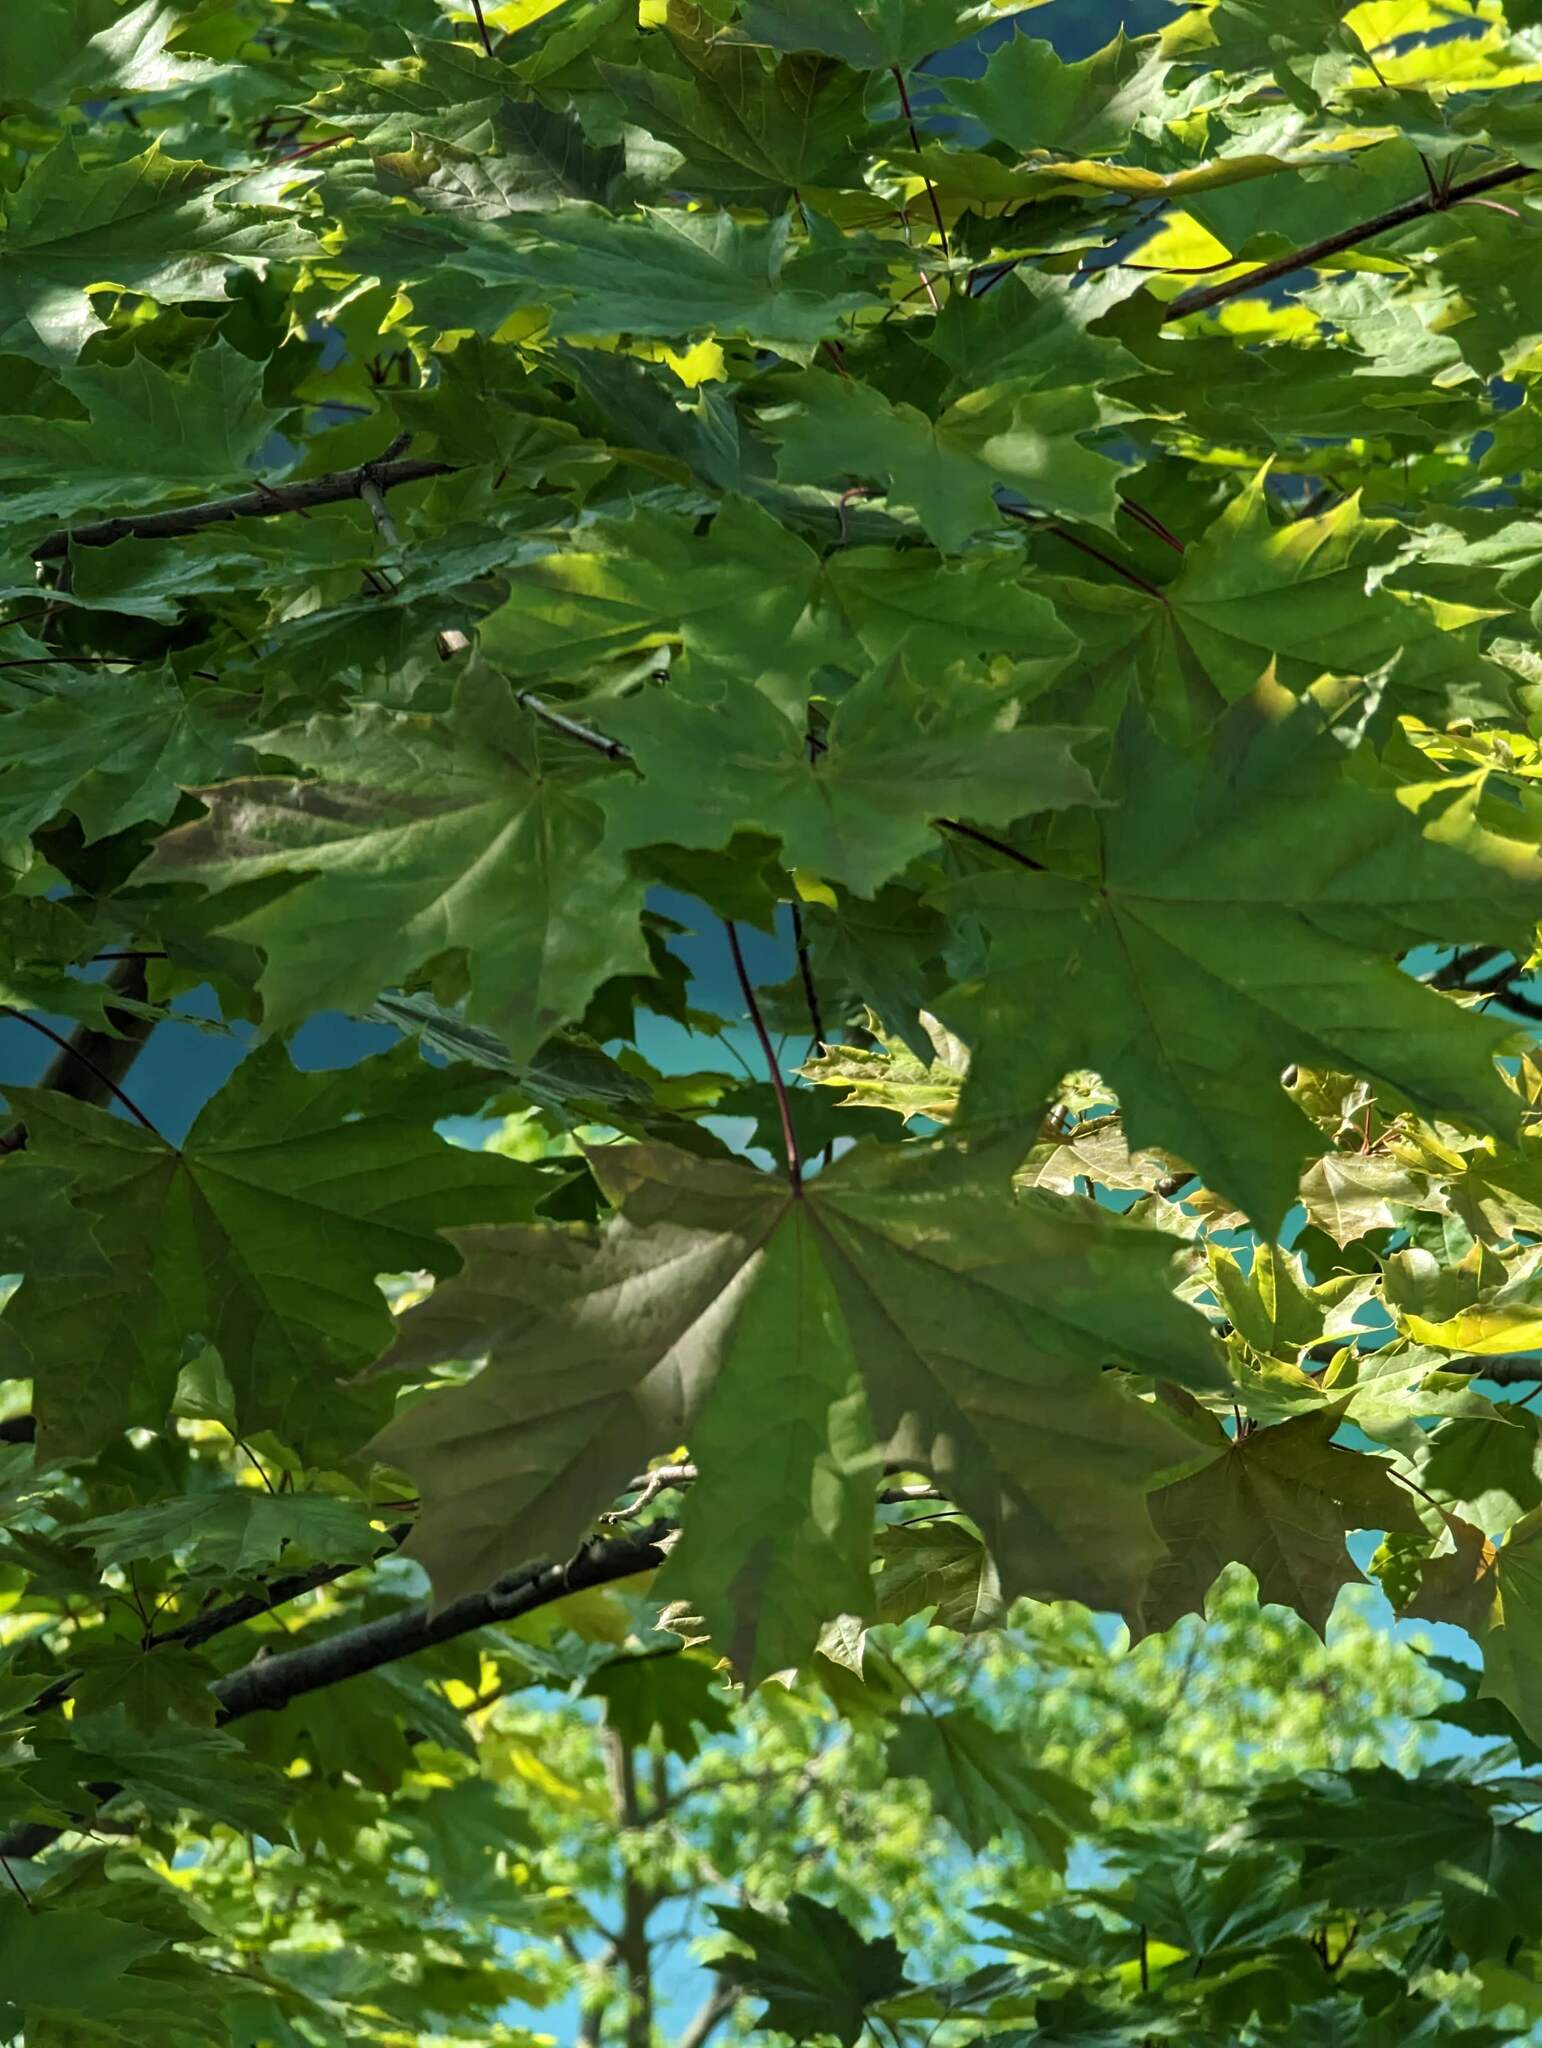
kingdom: Plantae
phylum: Tracheophyta
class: Magnoliopsida
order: Sapindales
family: Sapindaceae
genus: Acer
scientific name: Acer platanoides
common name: Norway maple
